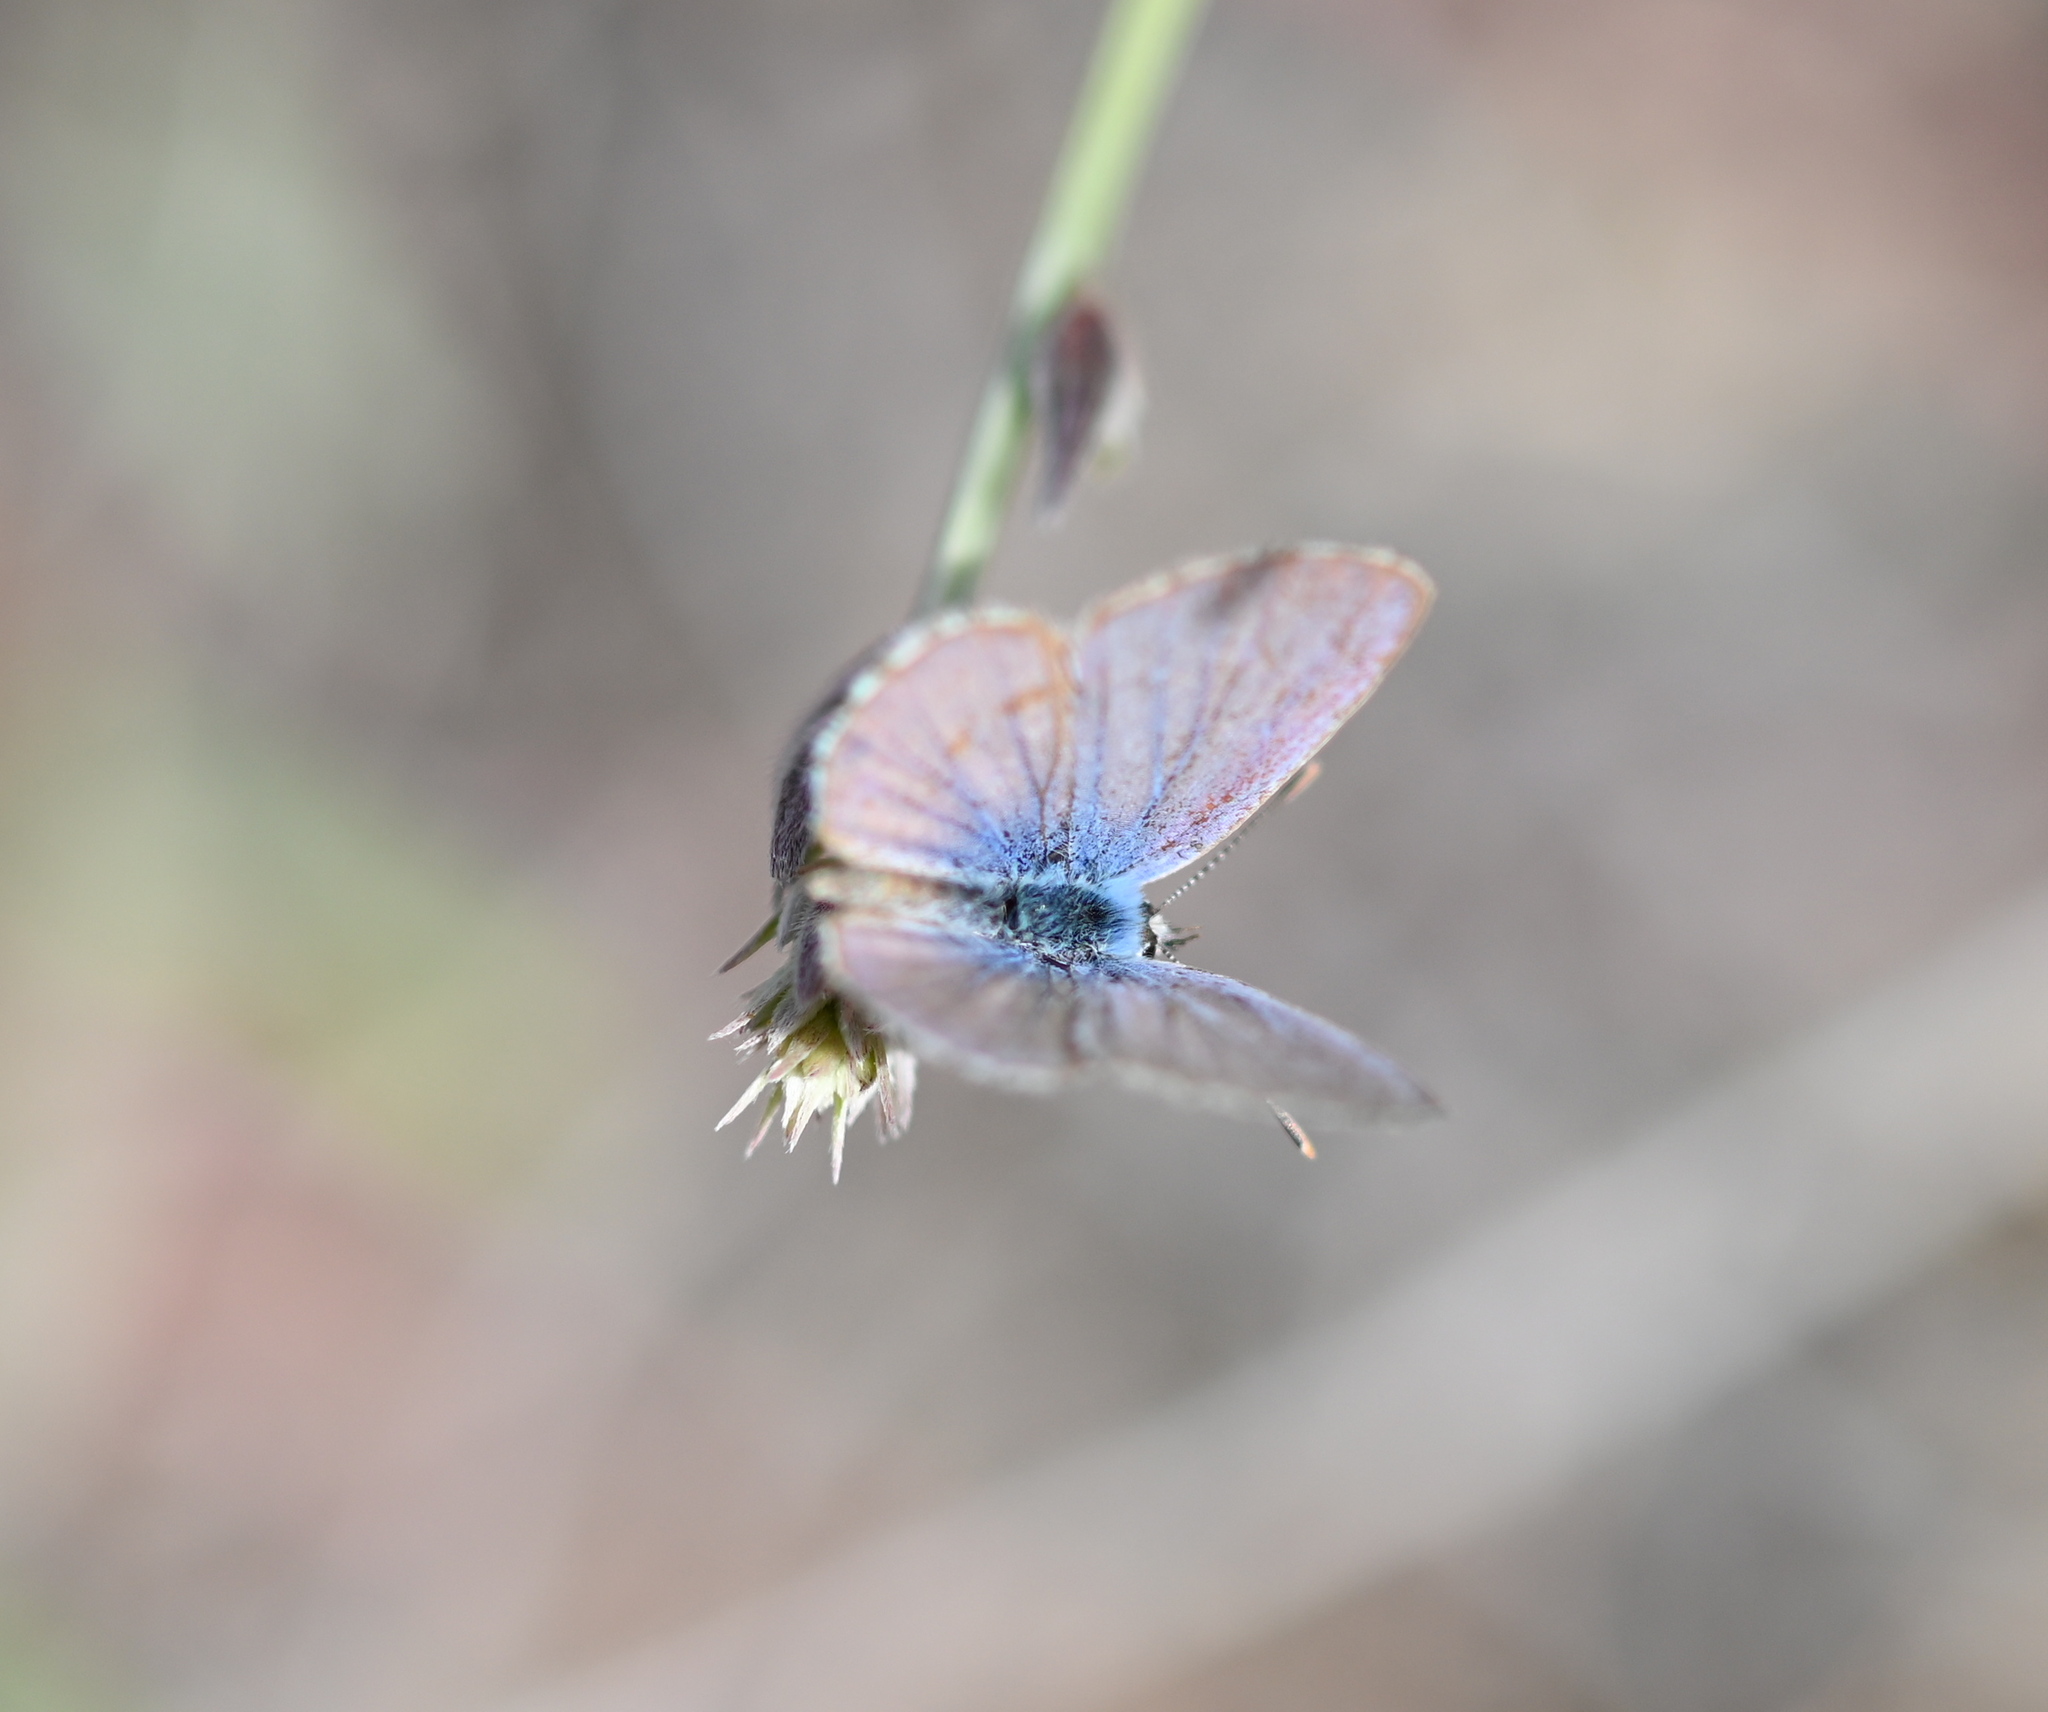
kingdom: Animalia
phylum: Arthropoda
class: Insecta
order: Lepidoptera
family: Lycaenidae
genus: Echinargus
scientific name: Echinargus isola
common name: Reakirt's blue
